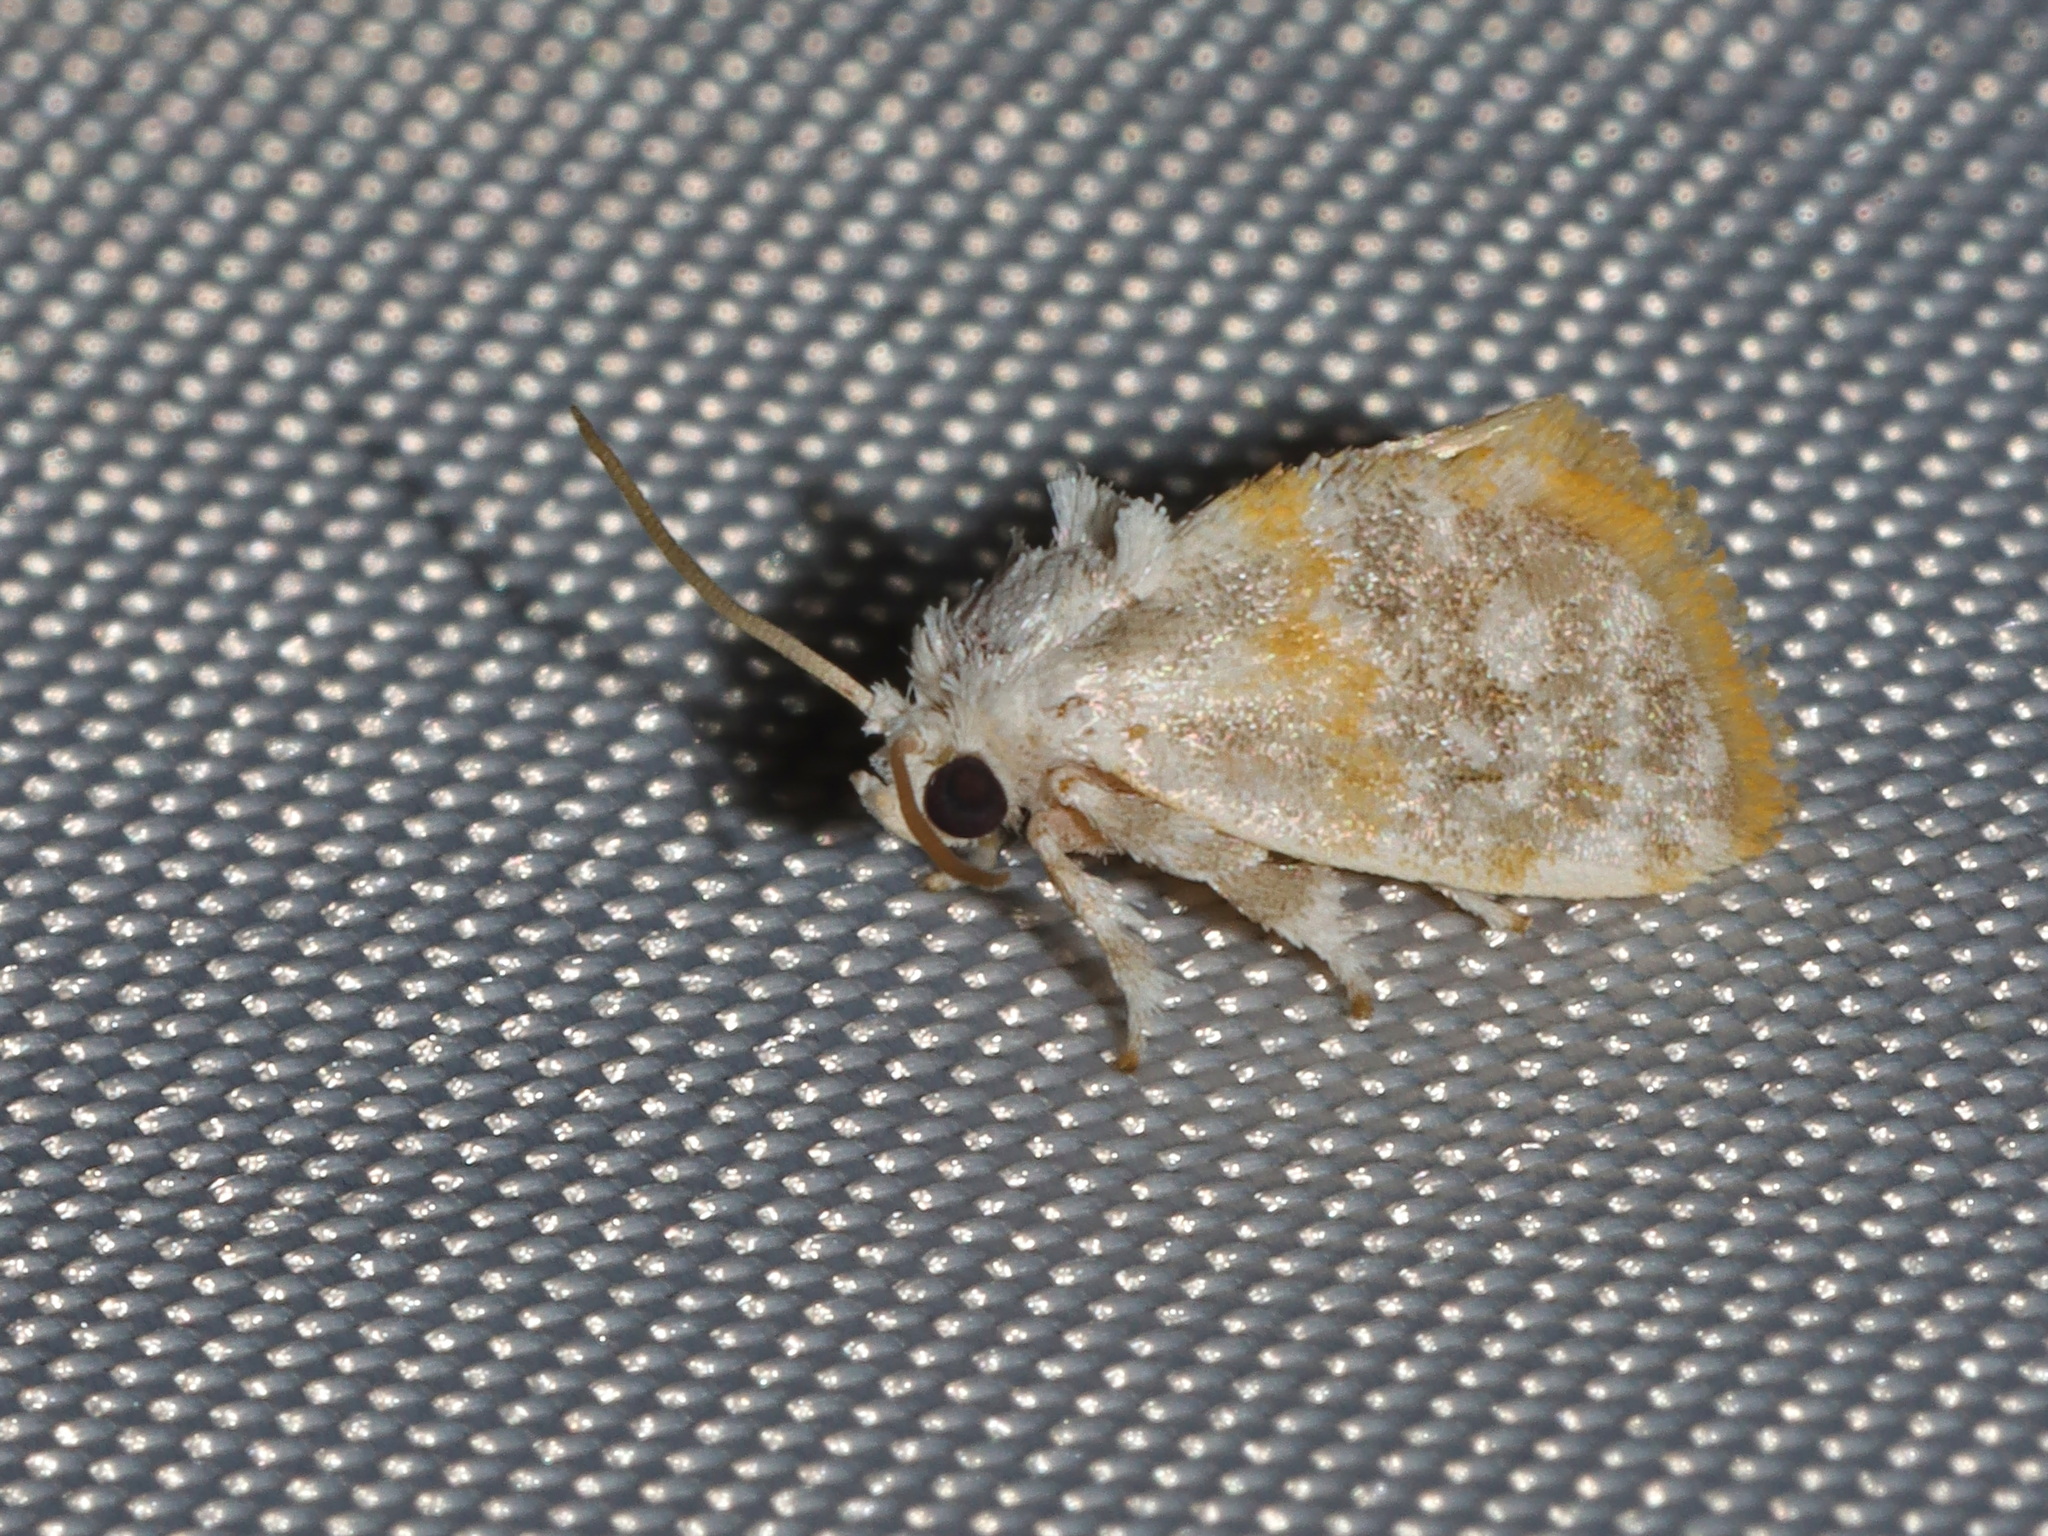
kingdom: Animalia
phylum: Arthropoda
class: Insecta
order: Lepidoptera
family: Limacodidae
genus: Kitanola
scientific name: Kitanola brachygnatha
